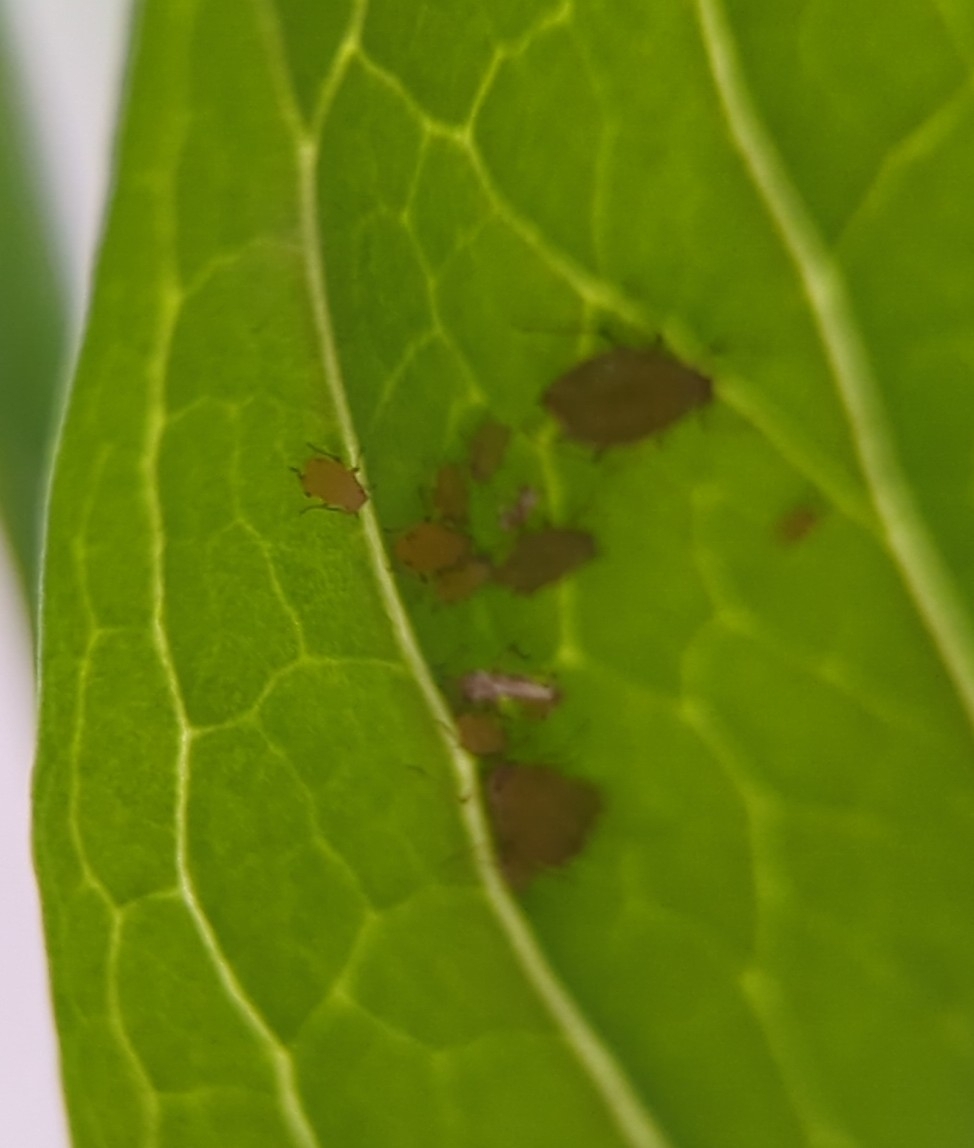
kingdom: Animalia
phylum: Arthropoda
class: Insecta
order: Hemiptera
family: Aphididae
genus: Aphis
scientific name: Aphis nerii
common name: Oleander aphid
